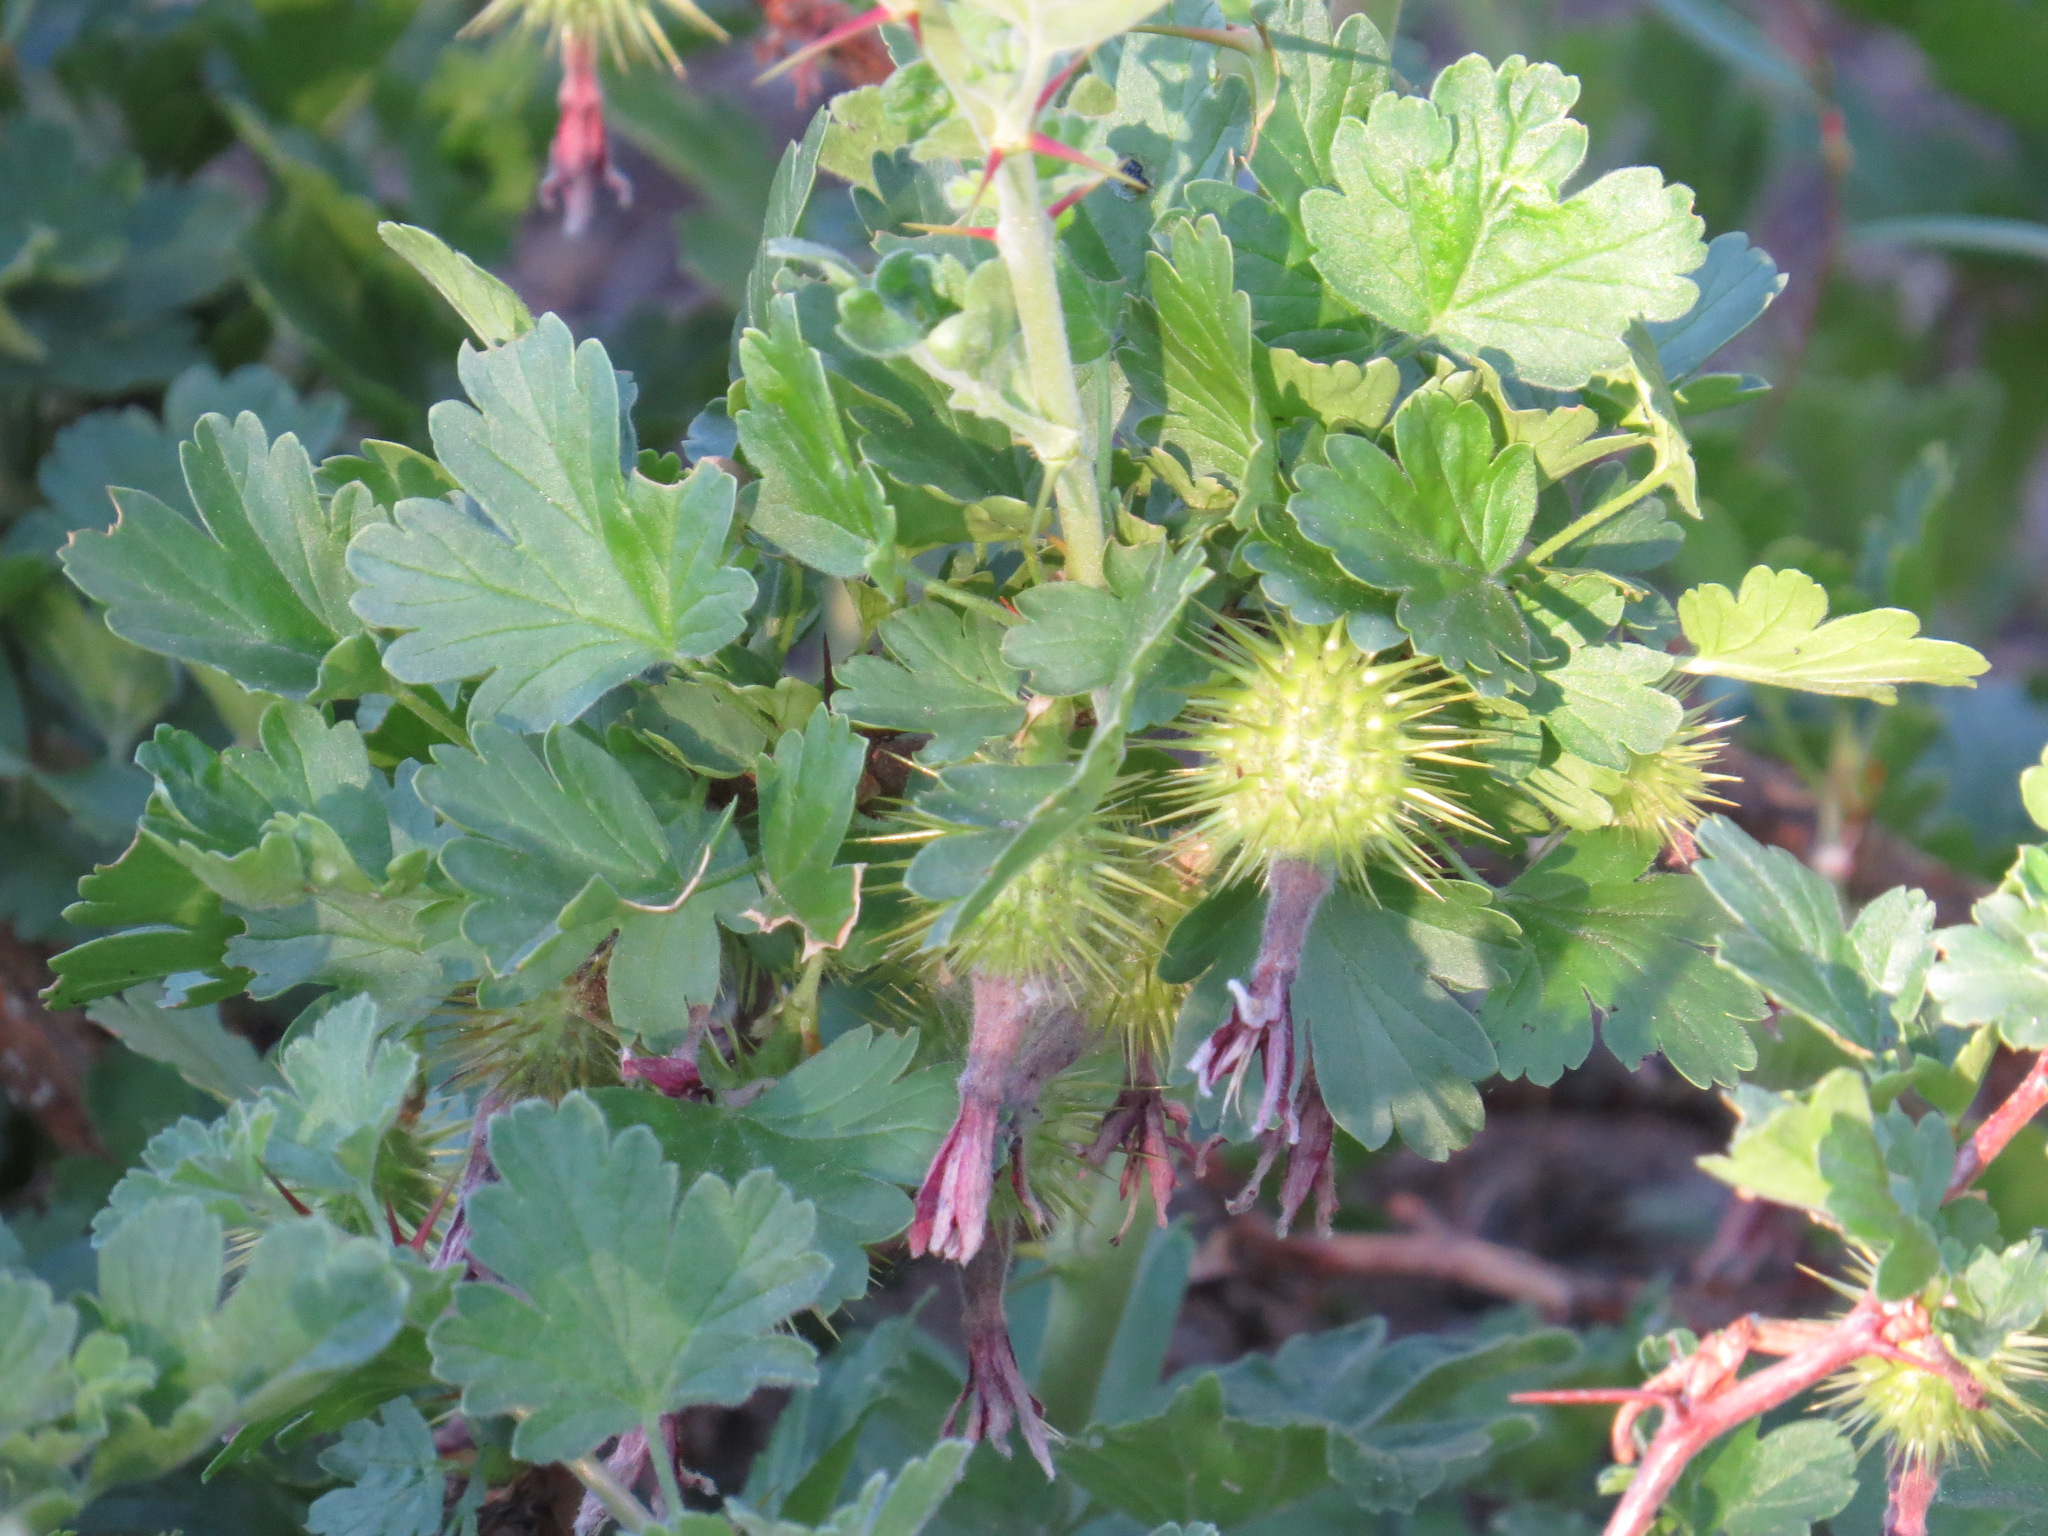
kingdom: Plantae
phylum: Tracheophyta
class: Magnoliopsida
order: Saxifragales
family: Grossulariaceae
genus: Ribes
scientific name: Ribes roezlii
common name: Sierra gooseberry
